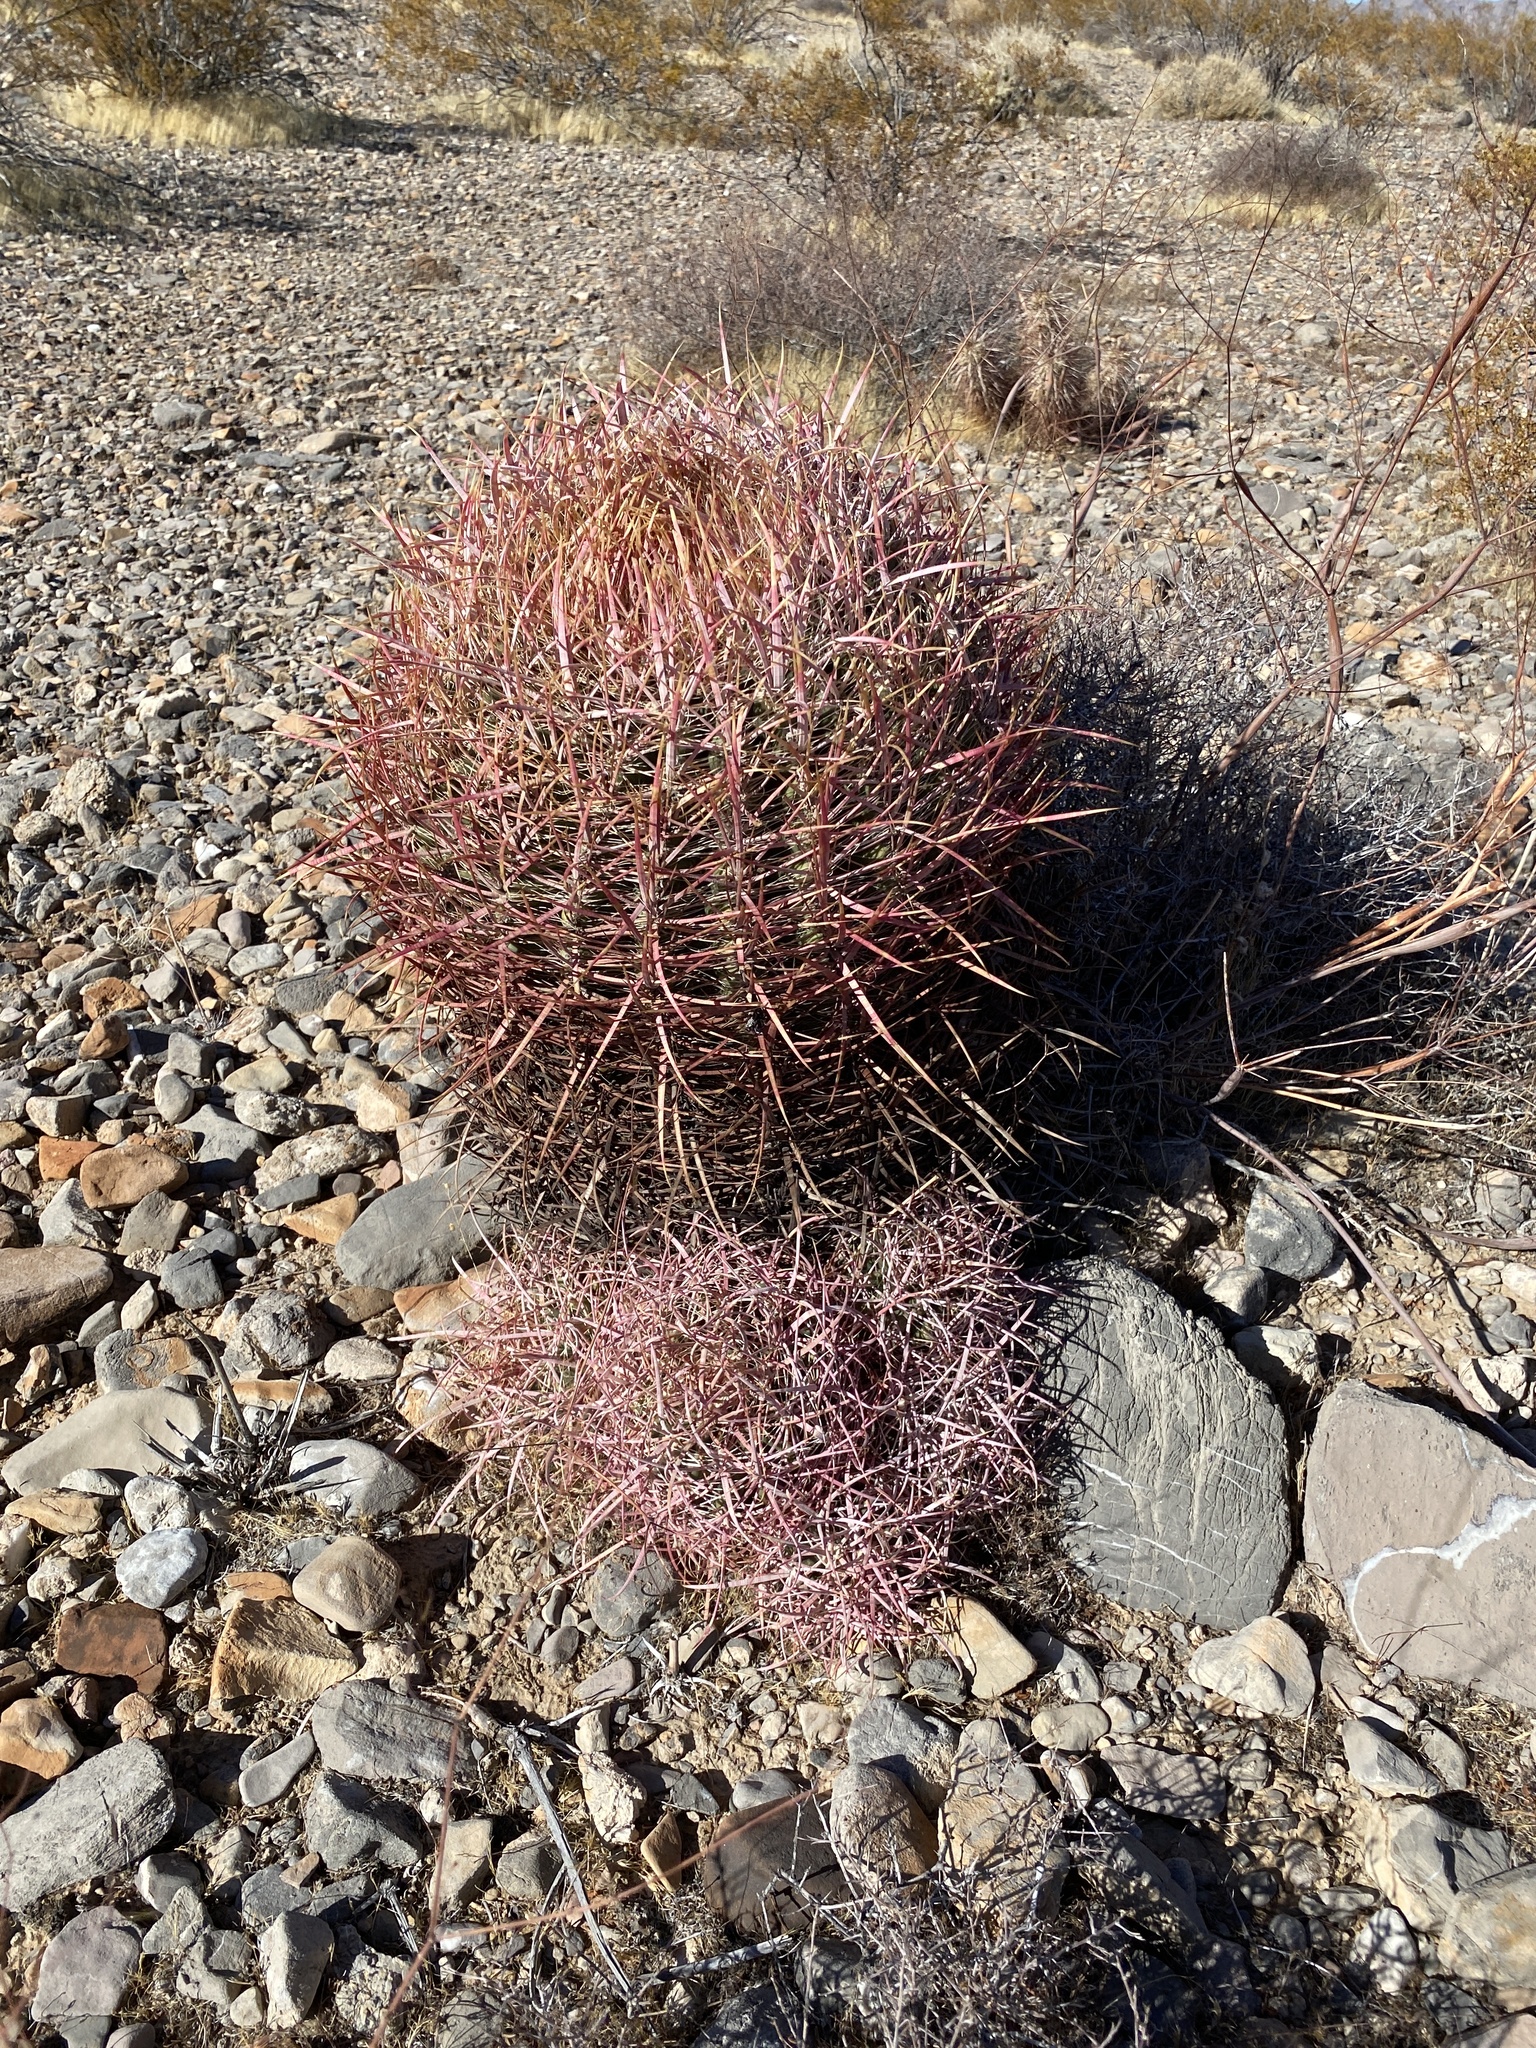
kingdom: Plantae
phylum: Tracheophyta
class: Magnoliopsida
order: Caryophyllales
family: Cactaceae
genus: Ferocactus
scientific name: Ferocactus cylindraceus
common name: California barrel cactus
